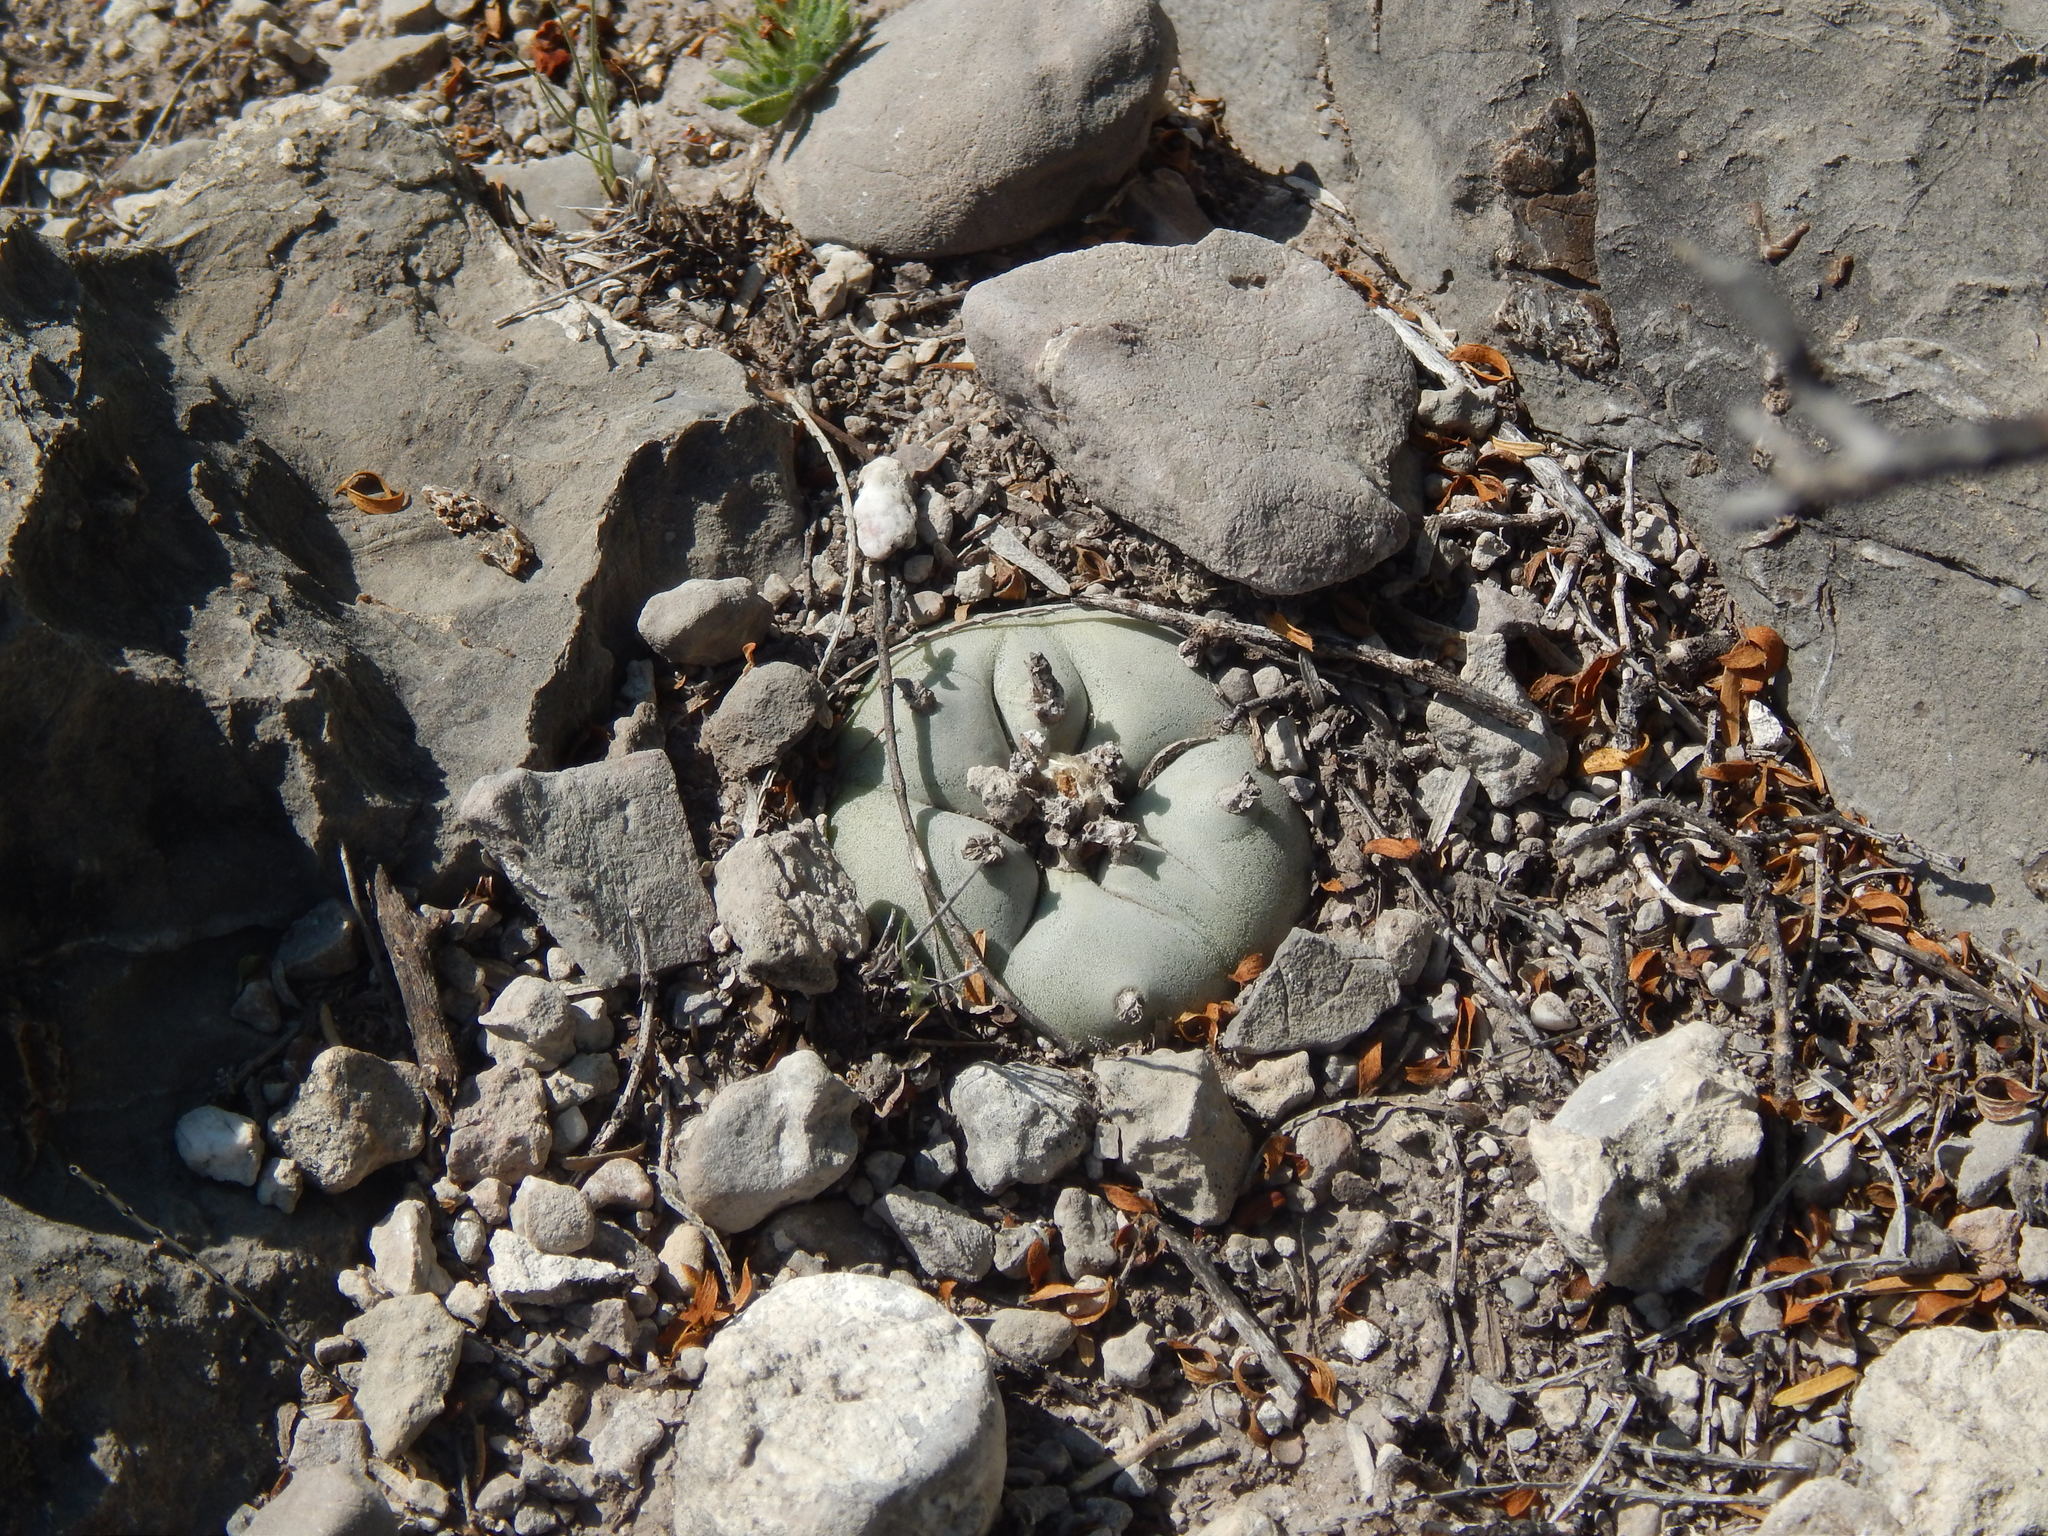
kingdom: Plantae
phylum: Tracheophyta
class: Magnoliopsida
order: Caryophyllales
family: Cactaceae
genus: Lophophora
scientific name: Lophophora williamsii
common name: Indian-dope
